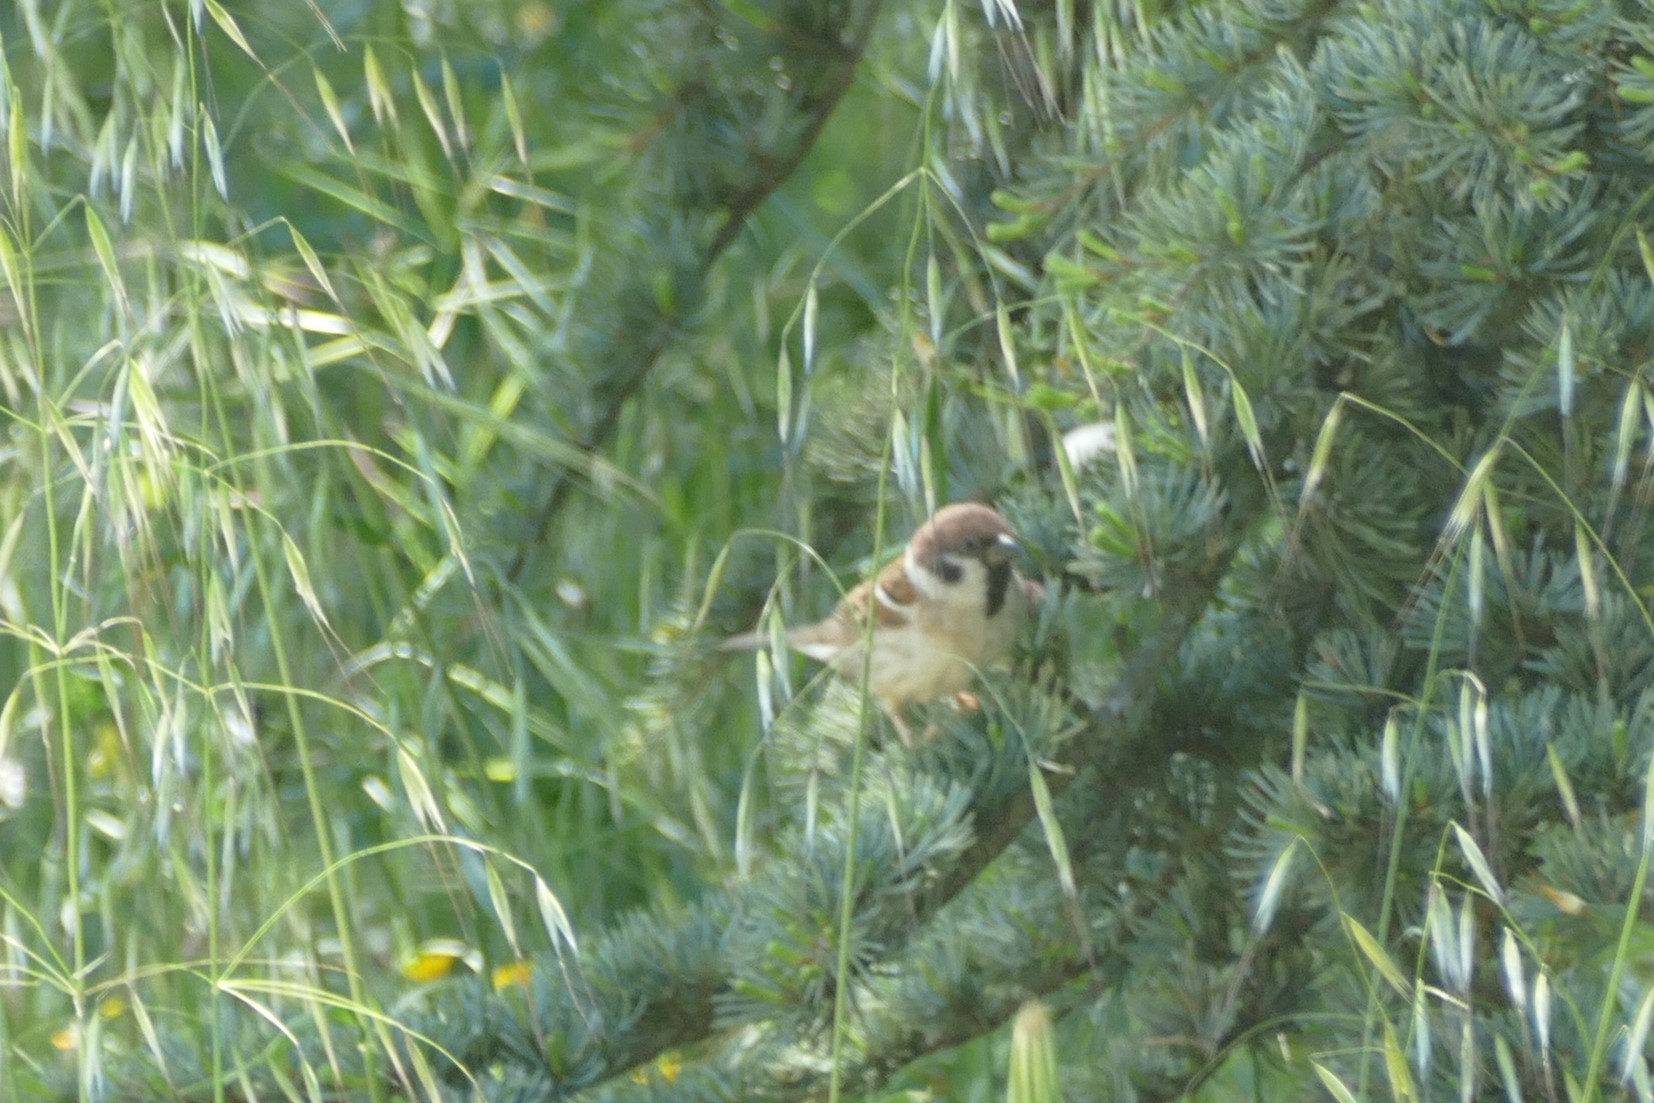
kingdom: Animalia
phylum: Chordata
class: Aves
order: Passeriformes
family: Passeridae
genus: Passer
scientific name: Passer montanus
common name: Eurasian tree sparrow
